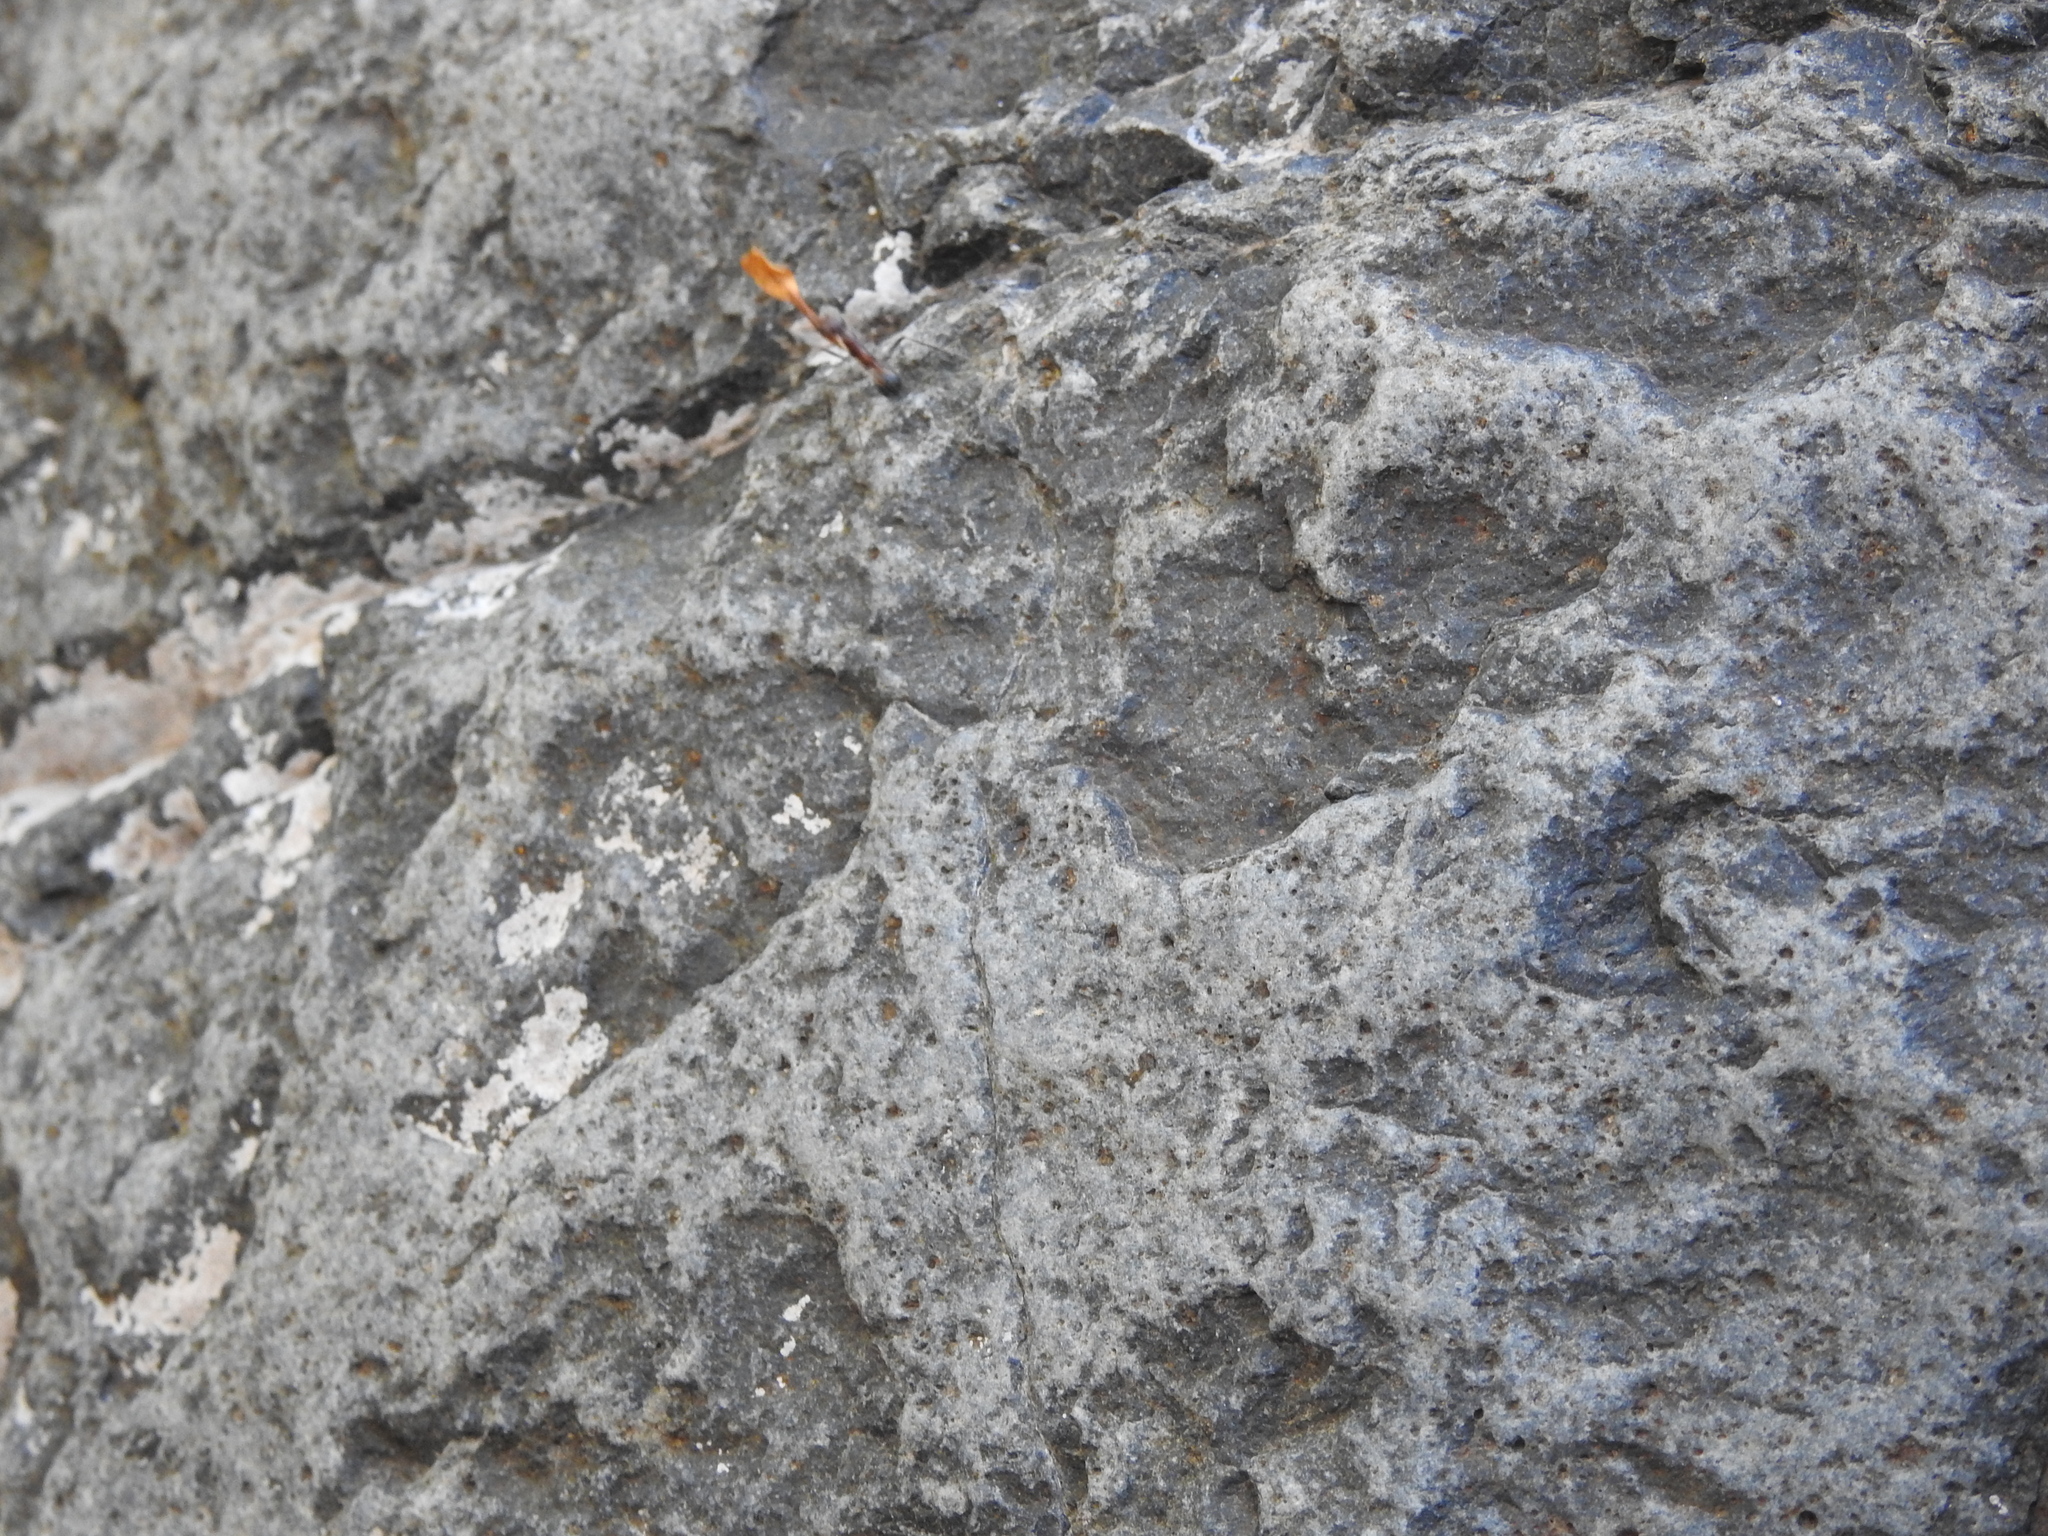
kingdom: Animalia
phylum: Arthropoda
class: Insecta
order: Hymenoptera
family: Formicidae
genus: Novomessor
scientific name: Novomessor albisetosa
